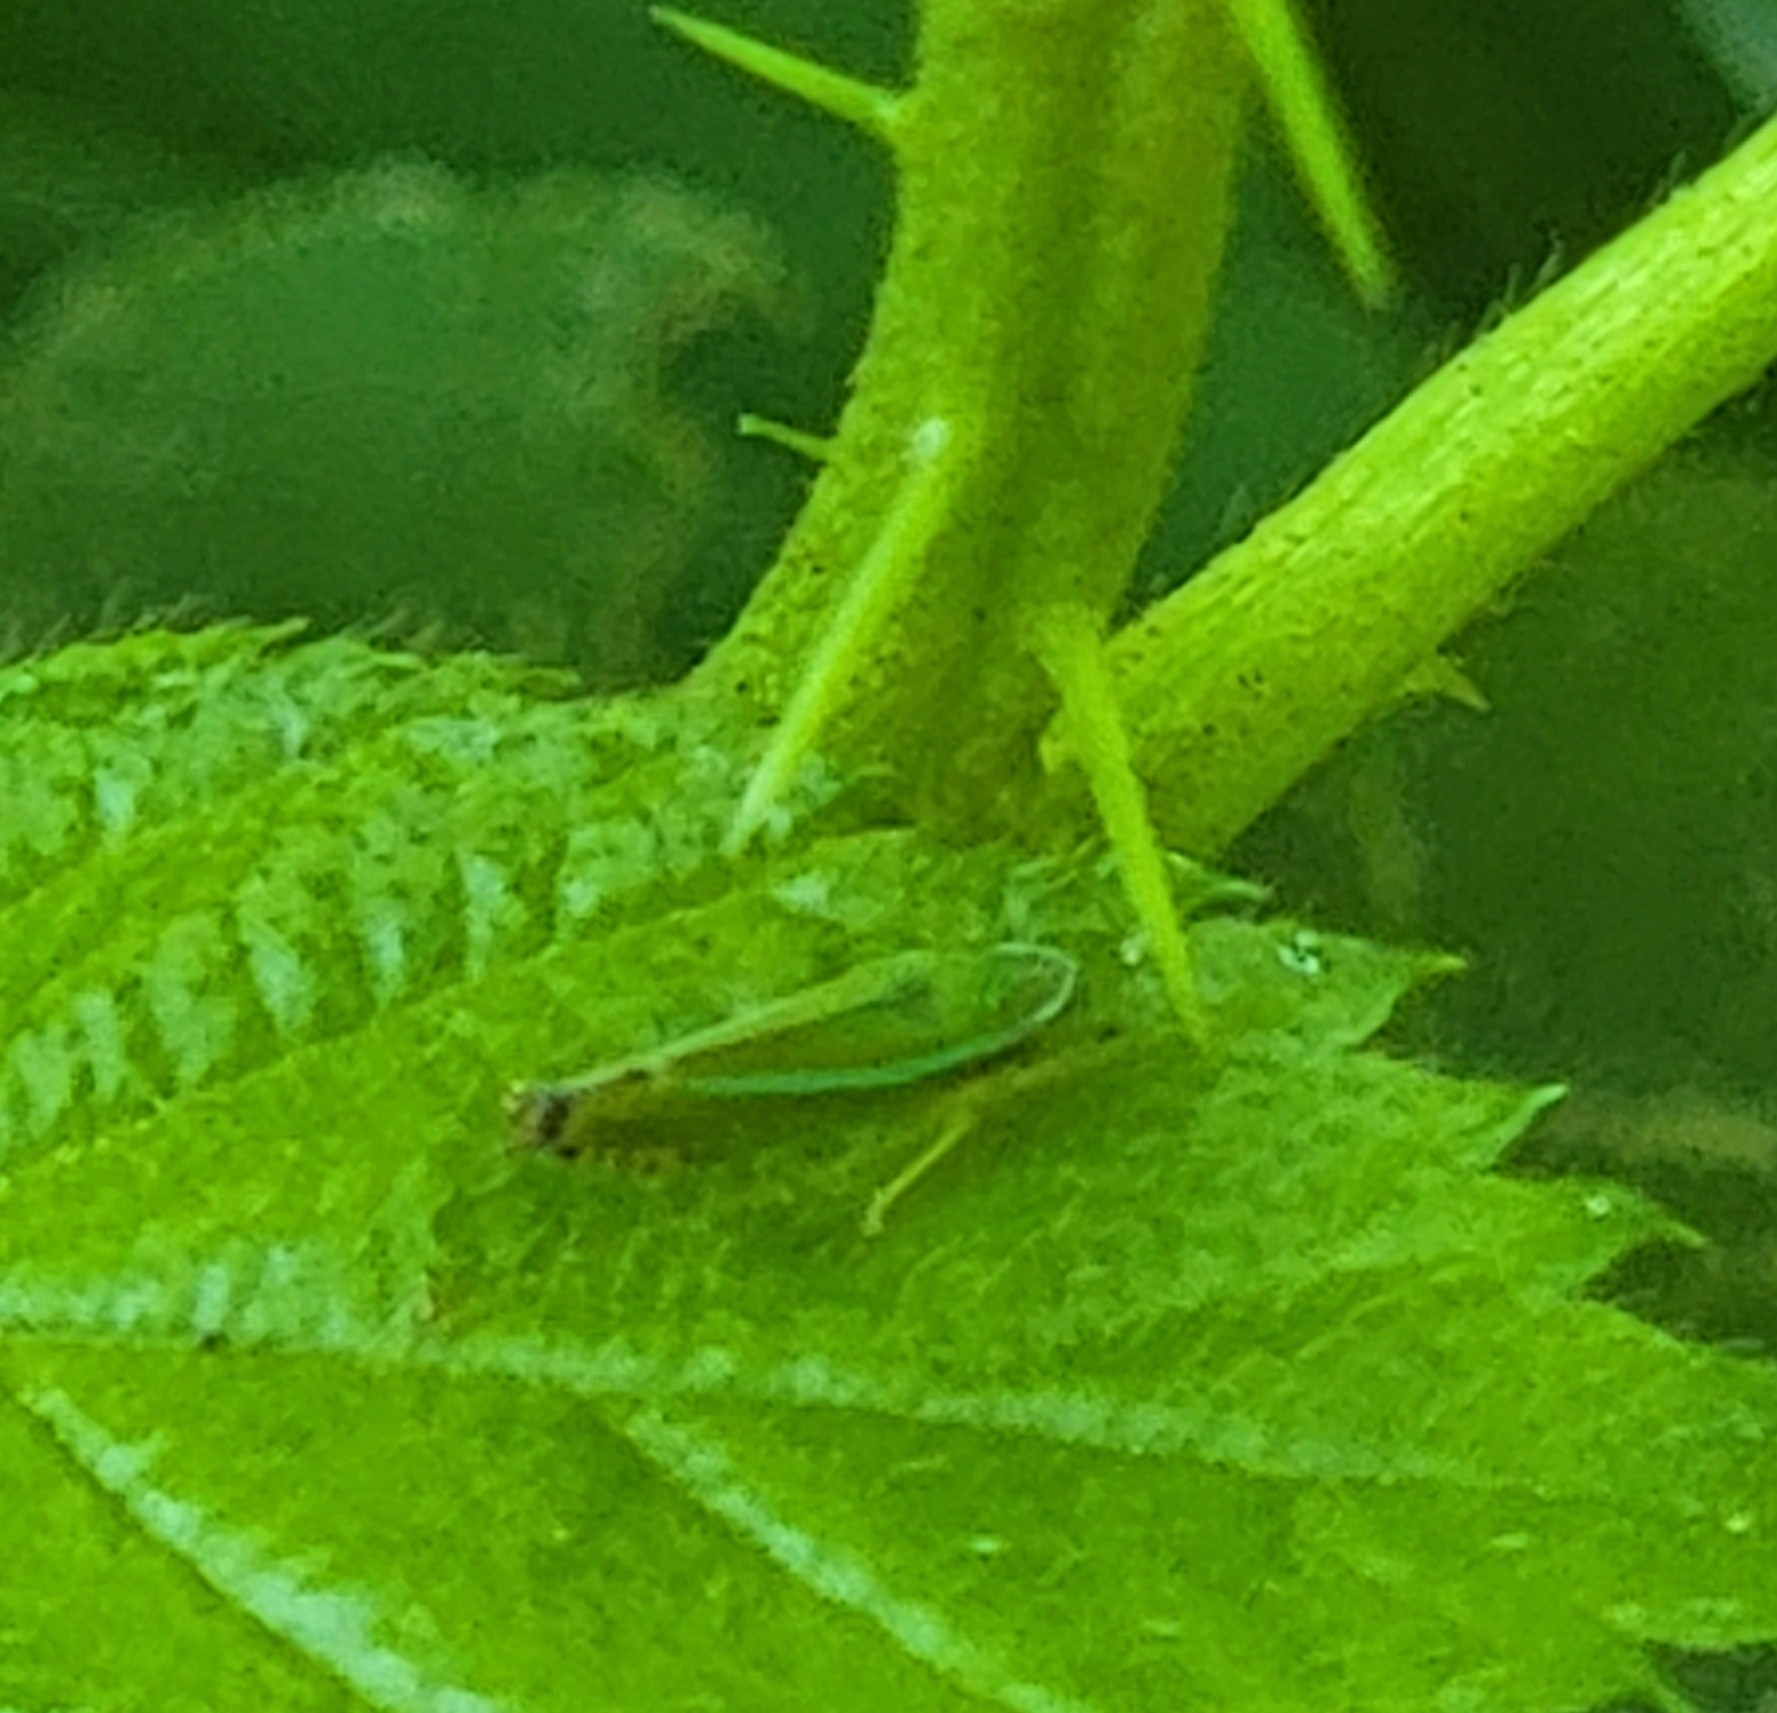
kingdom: Animalia
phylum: Arthropoda
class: Insecta
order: Hemiptera
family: Cicadellidae
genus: Graphocephala
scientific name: Graphocephala versuta
